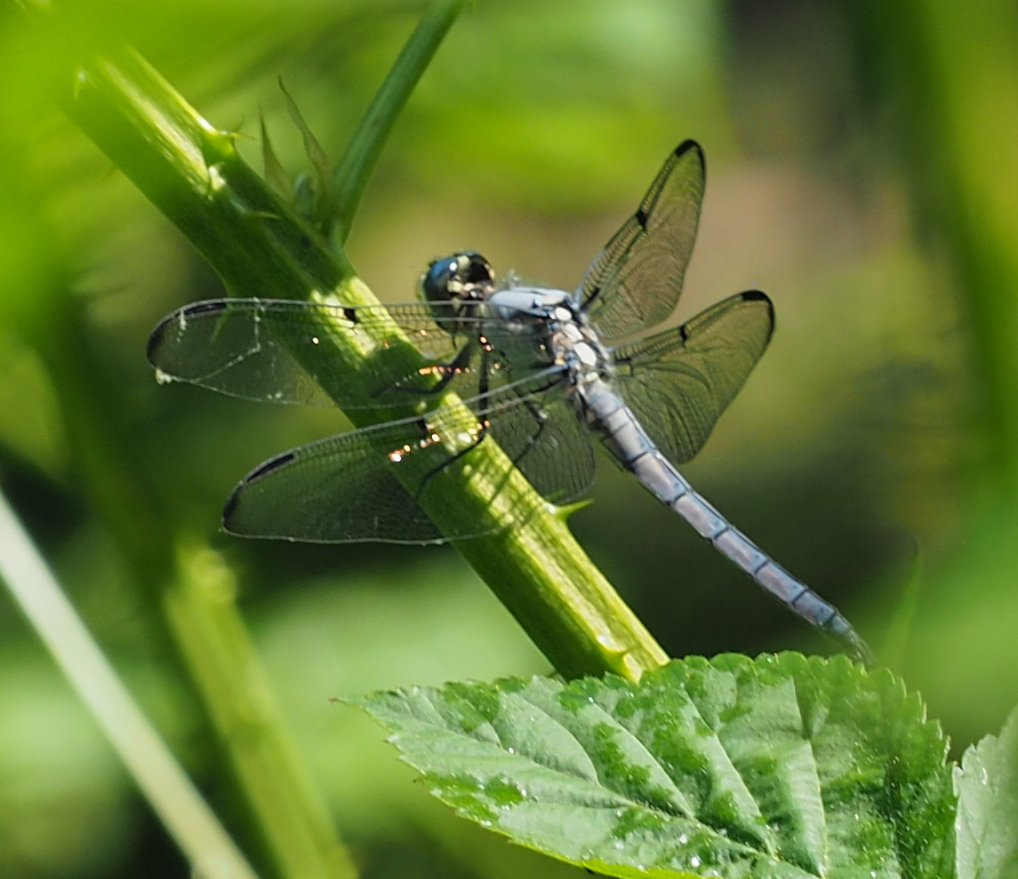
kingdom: Animalia
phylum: Arthropoda
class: Insecta
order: Odonata
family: Libellulidae
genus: Libellula
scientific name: Libellula vibrans
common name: Great blue skimmer
